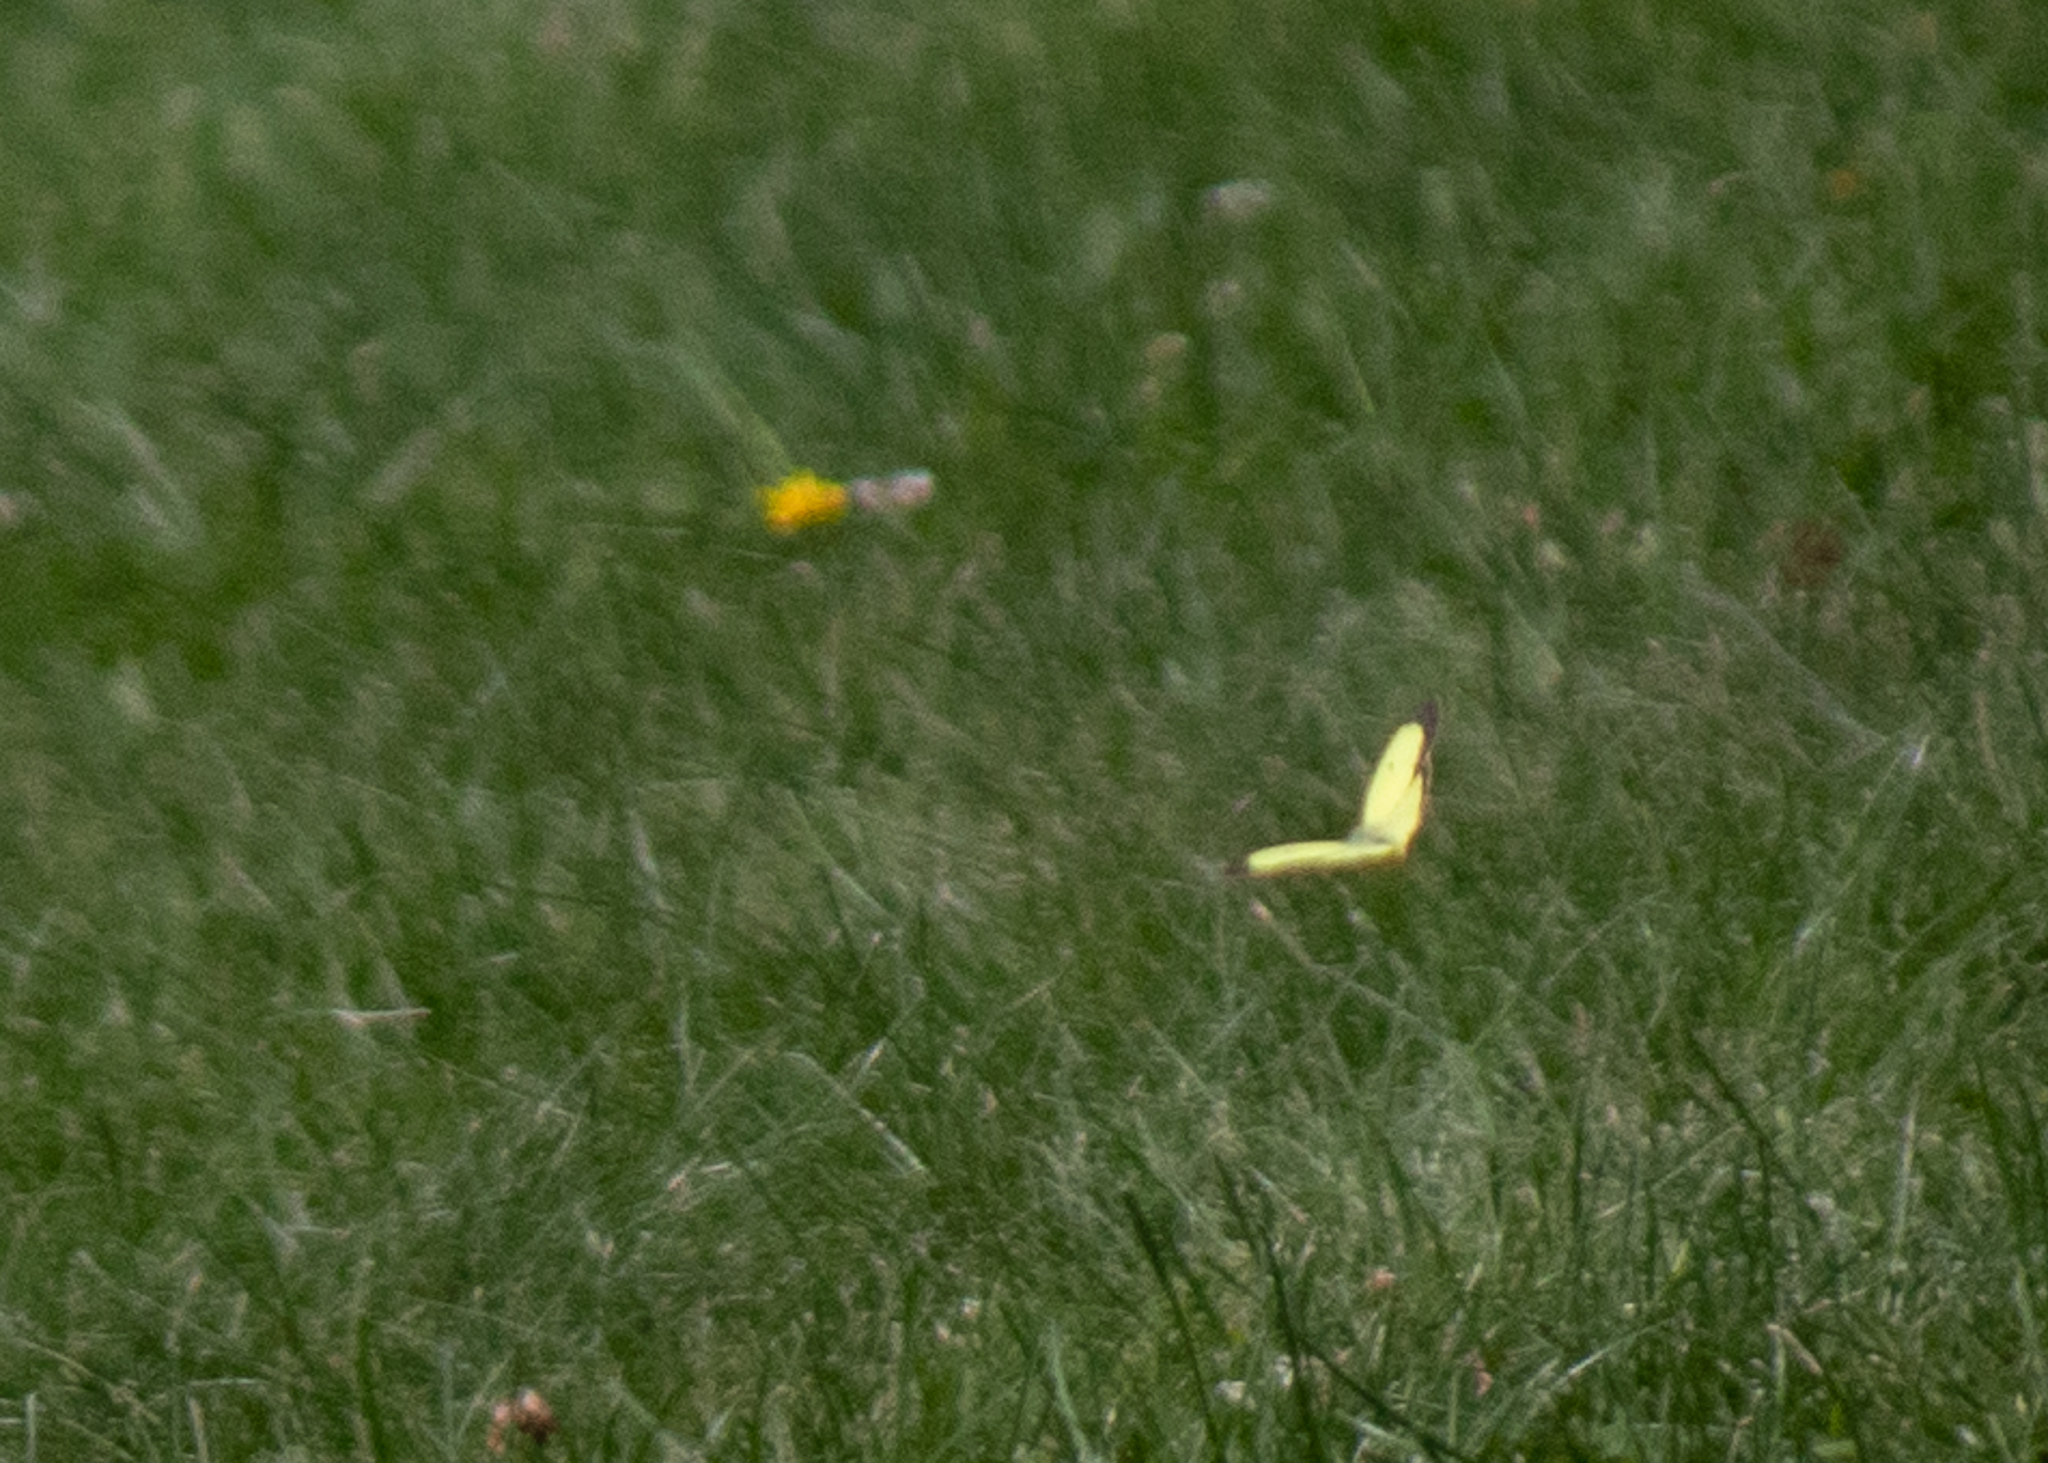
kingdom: Animalia
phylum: Arthropoda
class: Insecta
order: Lepidoptera
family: Pieridae
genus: Colias
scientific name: Colias philodice
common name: Clouded sulphur
